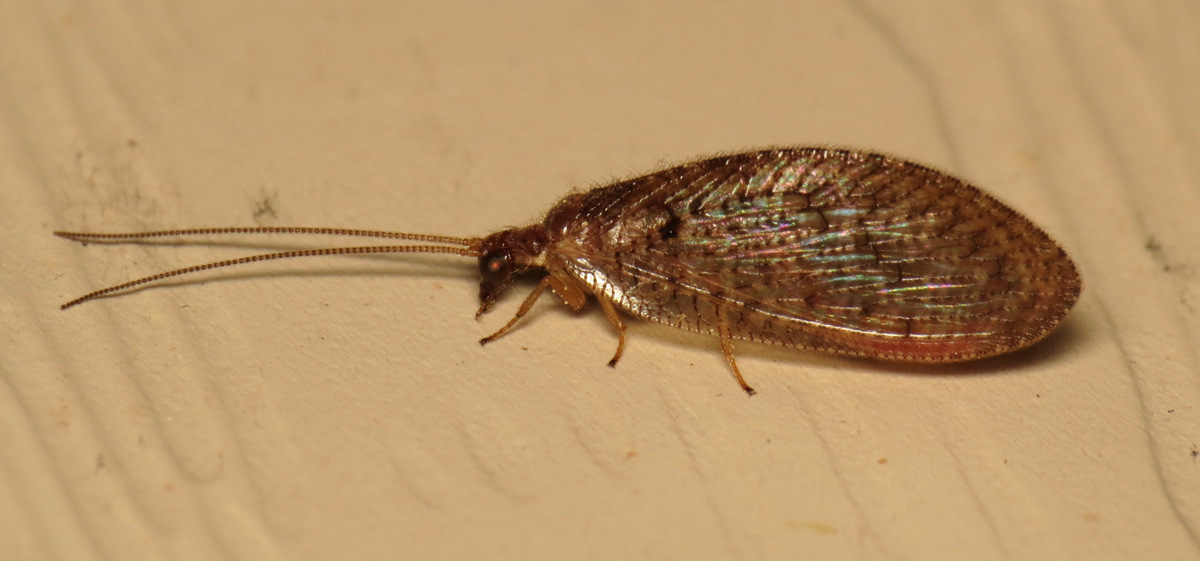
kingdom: Animalia
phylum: Arthropoda
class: Insecta
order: Neuroptera
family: Hemerobiidae
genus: Hemerobius
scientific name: Hemerobius stigma
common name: Brown pine lacewing
